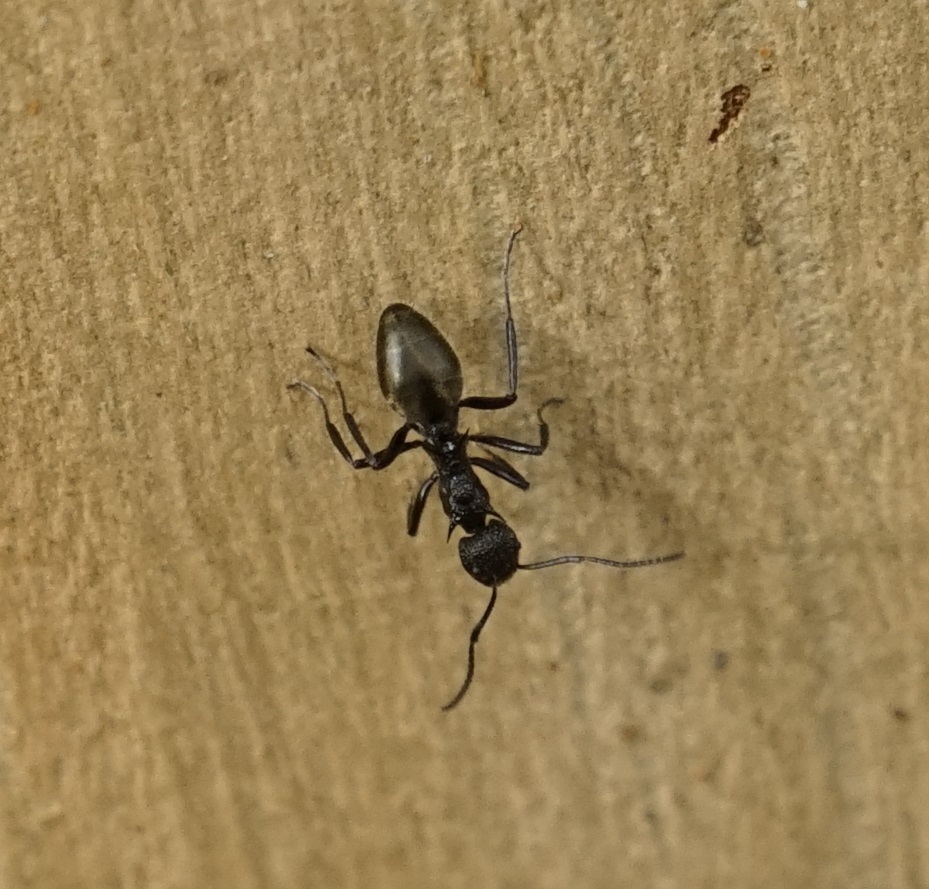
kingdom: Animalia
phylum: Arthropoda
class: Insecta
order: Hymenoptera
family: Formicidae
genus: Dolichoderus
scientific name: Dolichoderus clarki
